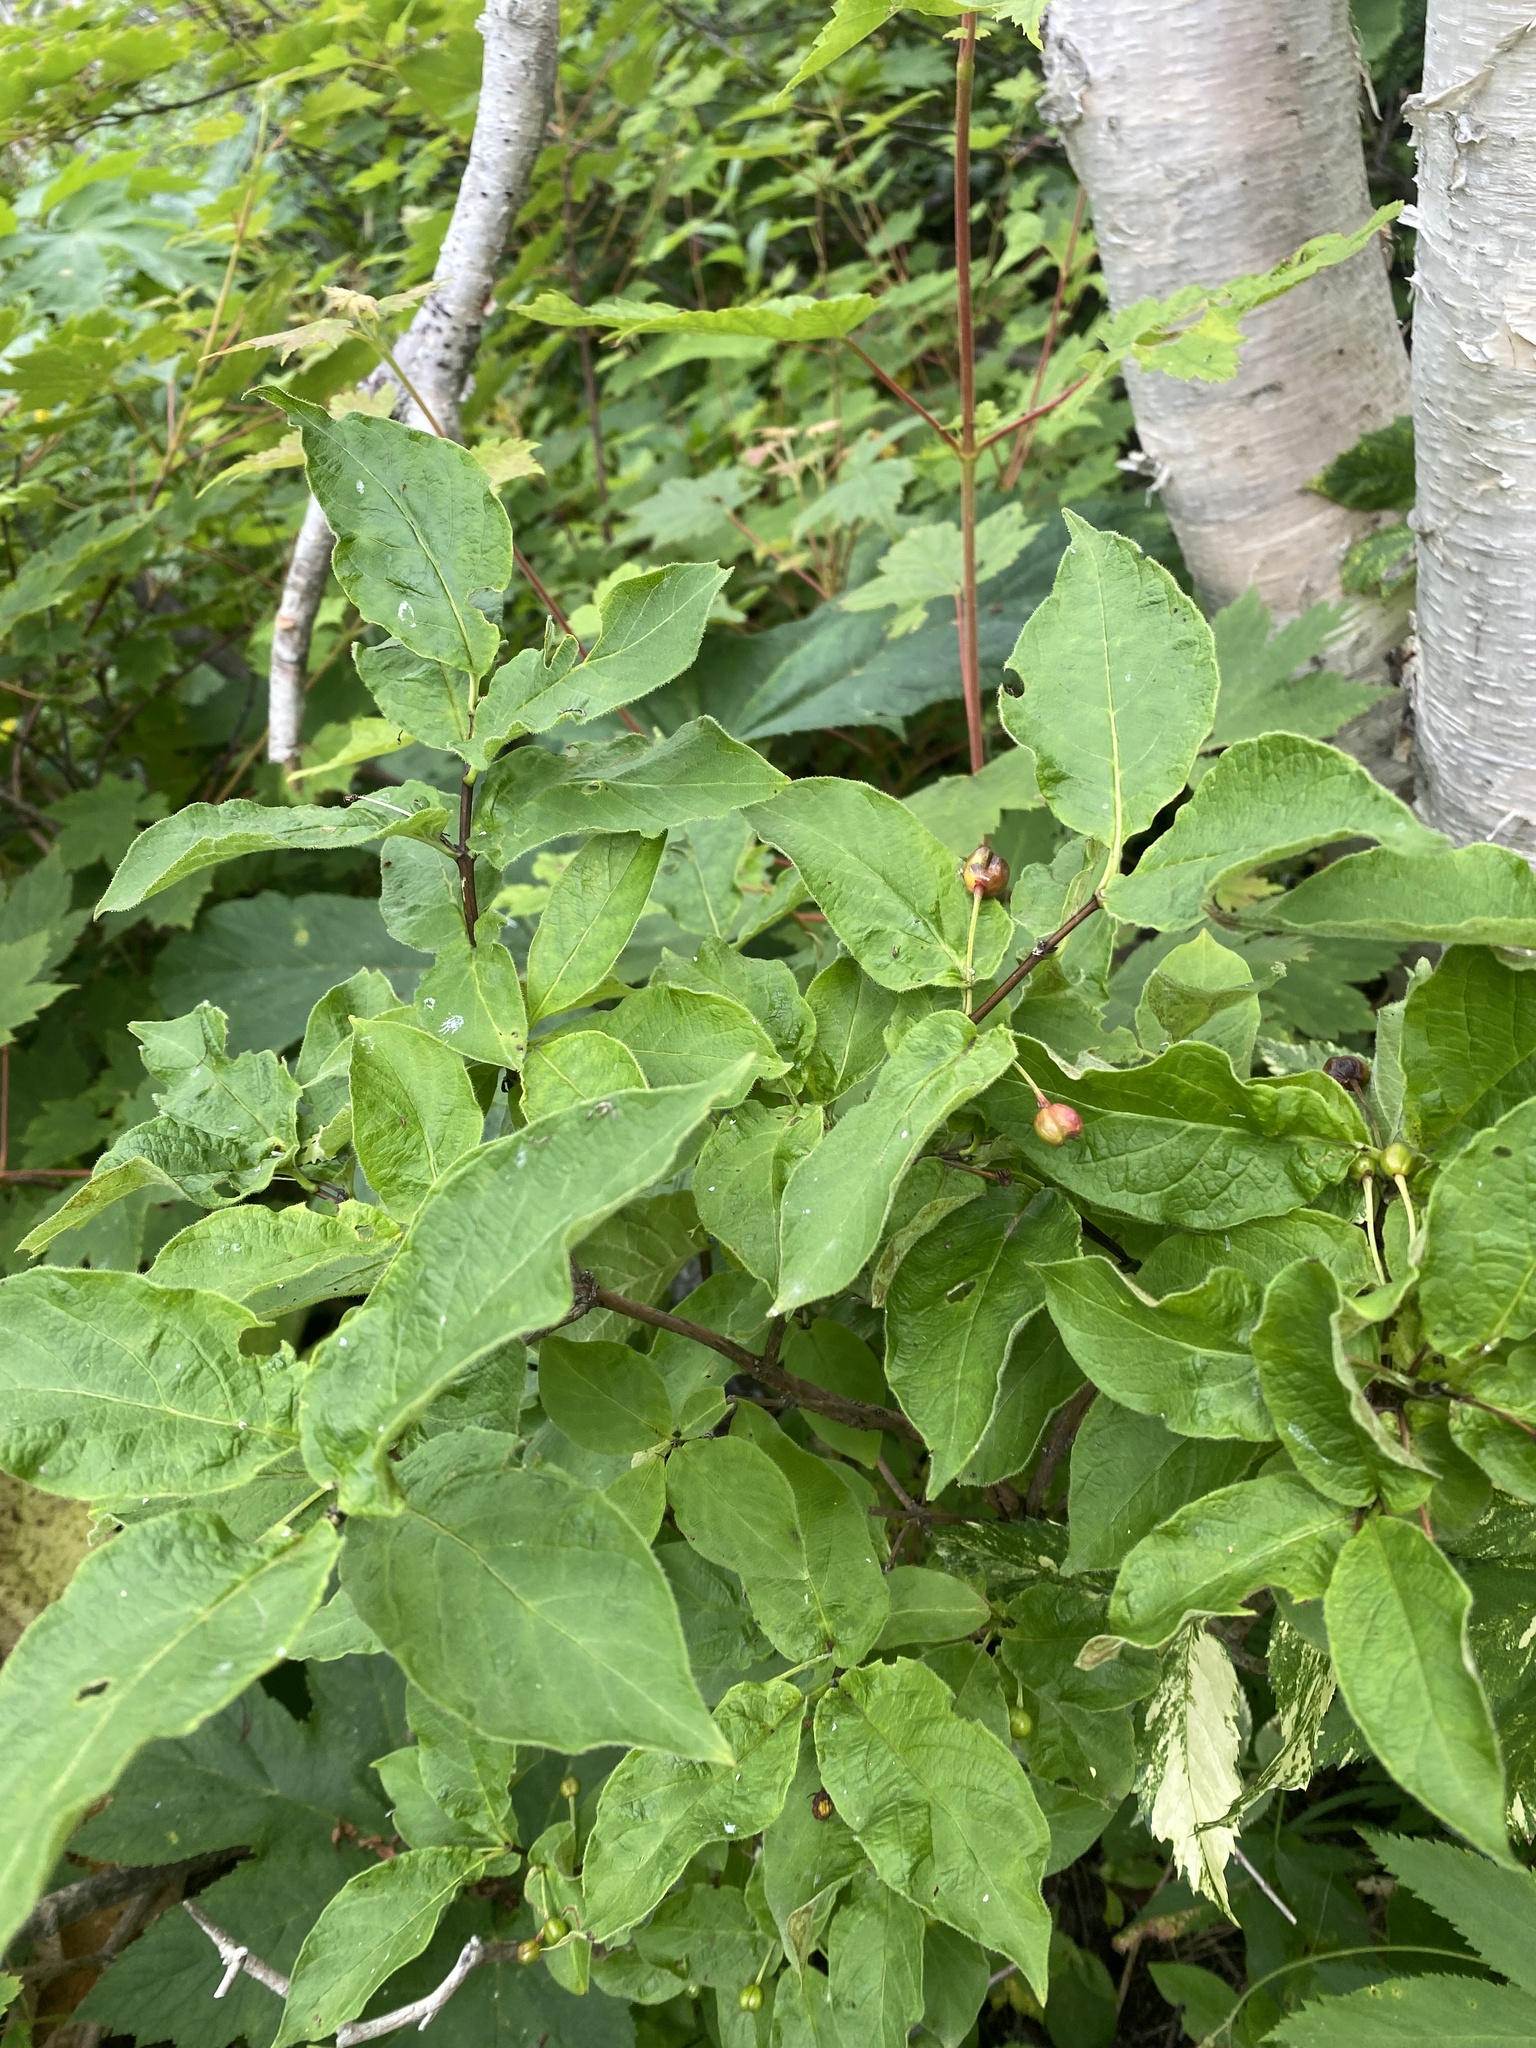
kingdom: Plantae
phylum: Tracheophyta
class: Magnoliopsida
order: Dipsacales
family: Caprifoliaceae
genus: Lonicera
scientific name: Lonicera glehnii
